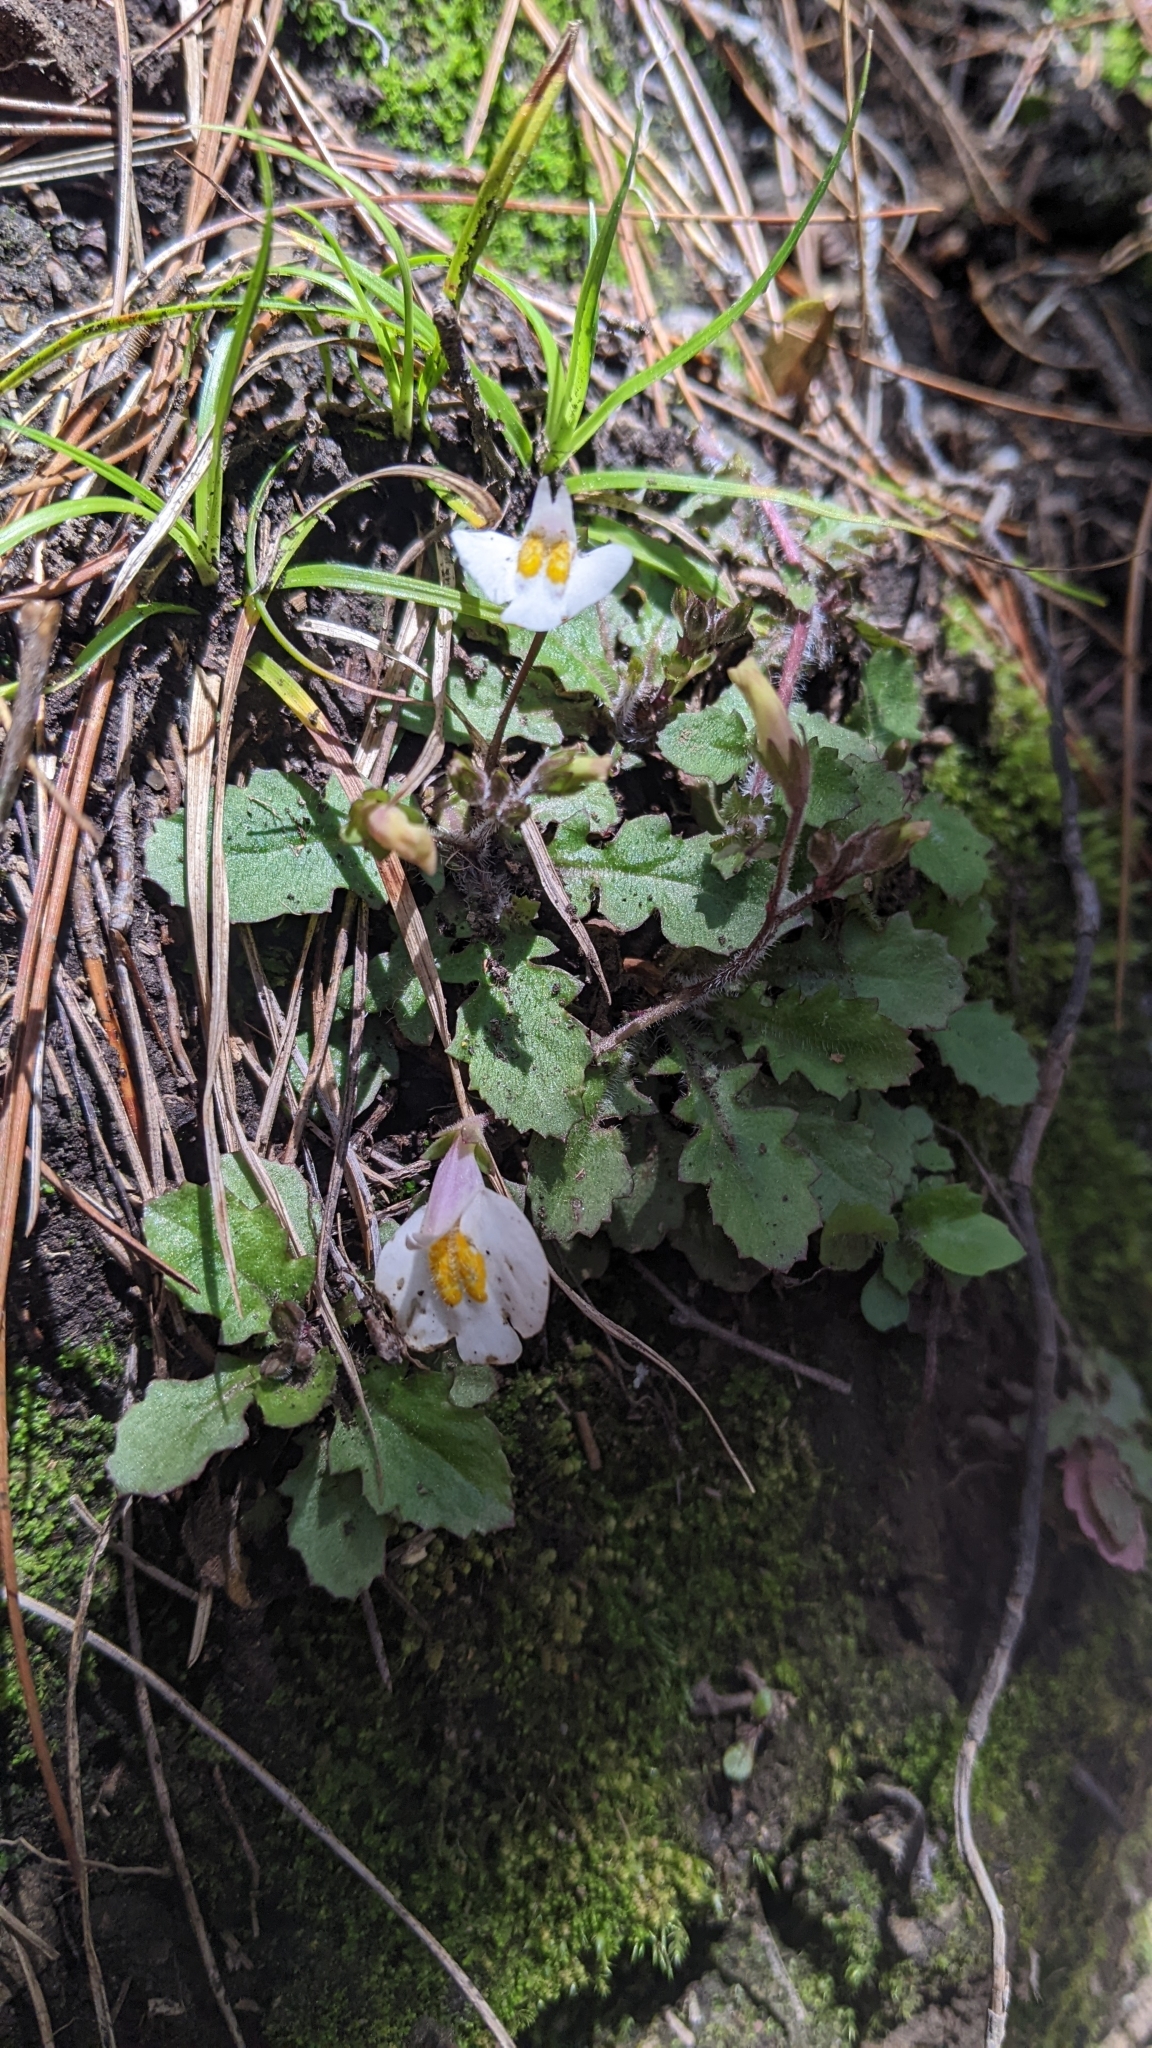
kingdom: Plantae
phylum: Tracheophyta
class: Magnoliopsida
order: Lamiales
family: Mazaceae
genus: Mazus
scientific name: Mazus alpinus
